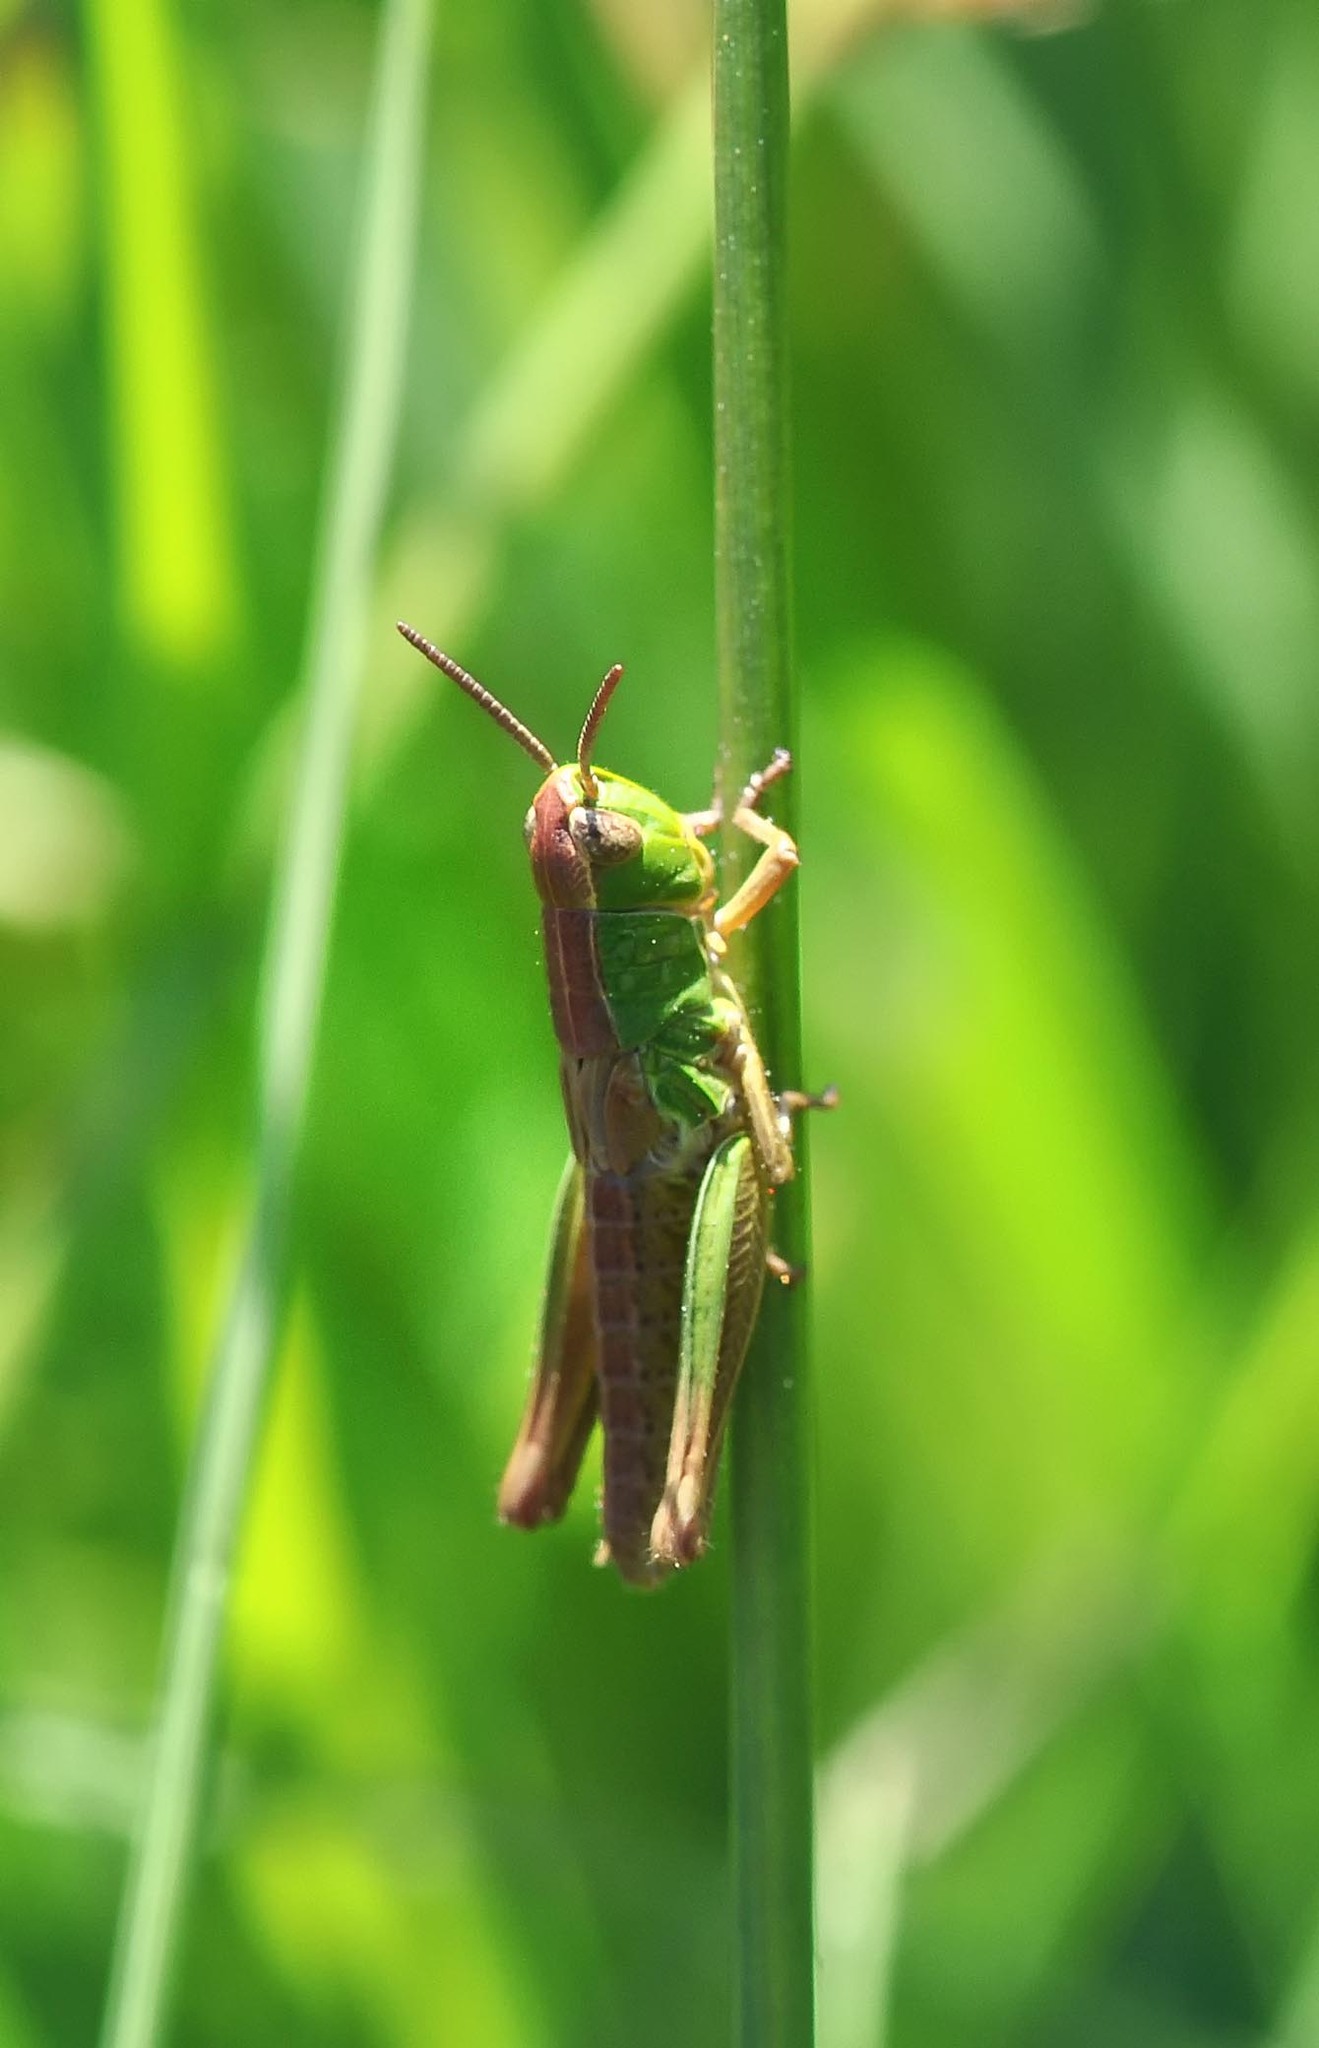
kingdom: Animalia
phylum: Arthropoda
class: Insecta
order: Orthoptera
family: Acrididae
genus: Pseudochorthippus
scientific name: Pseudochorthippus parallelus
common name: Meadow grasshopper
